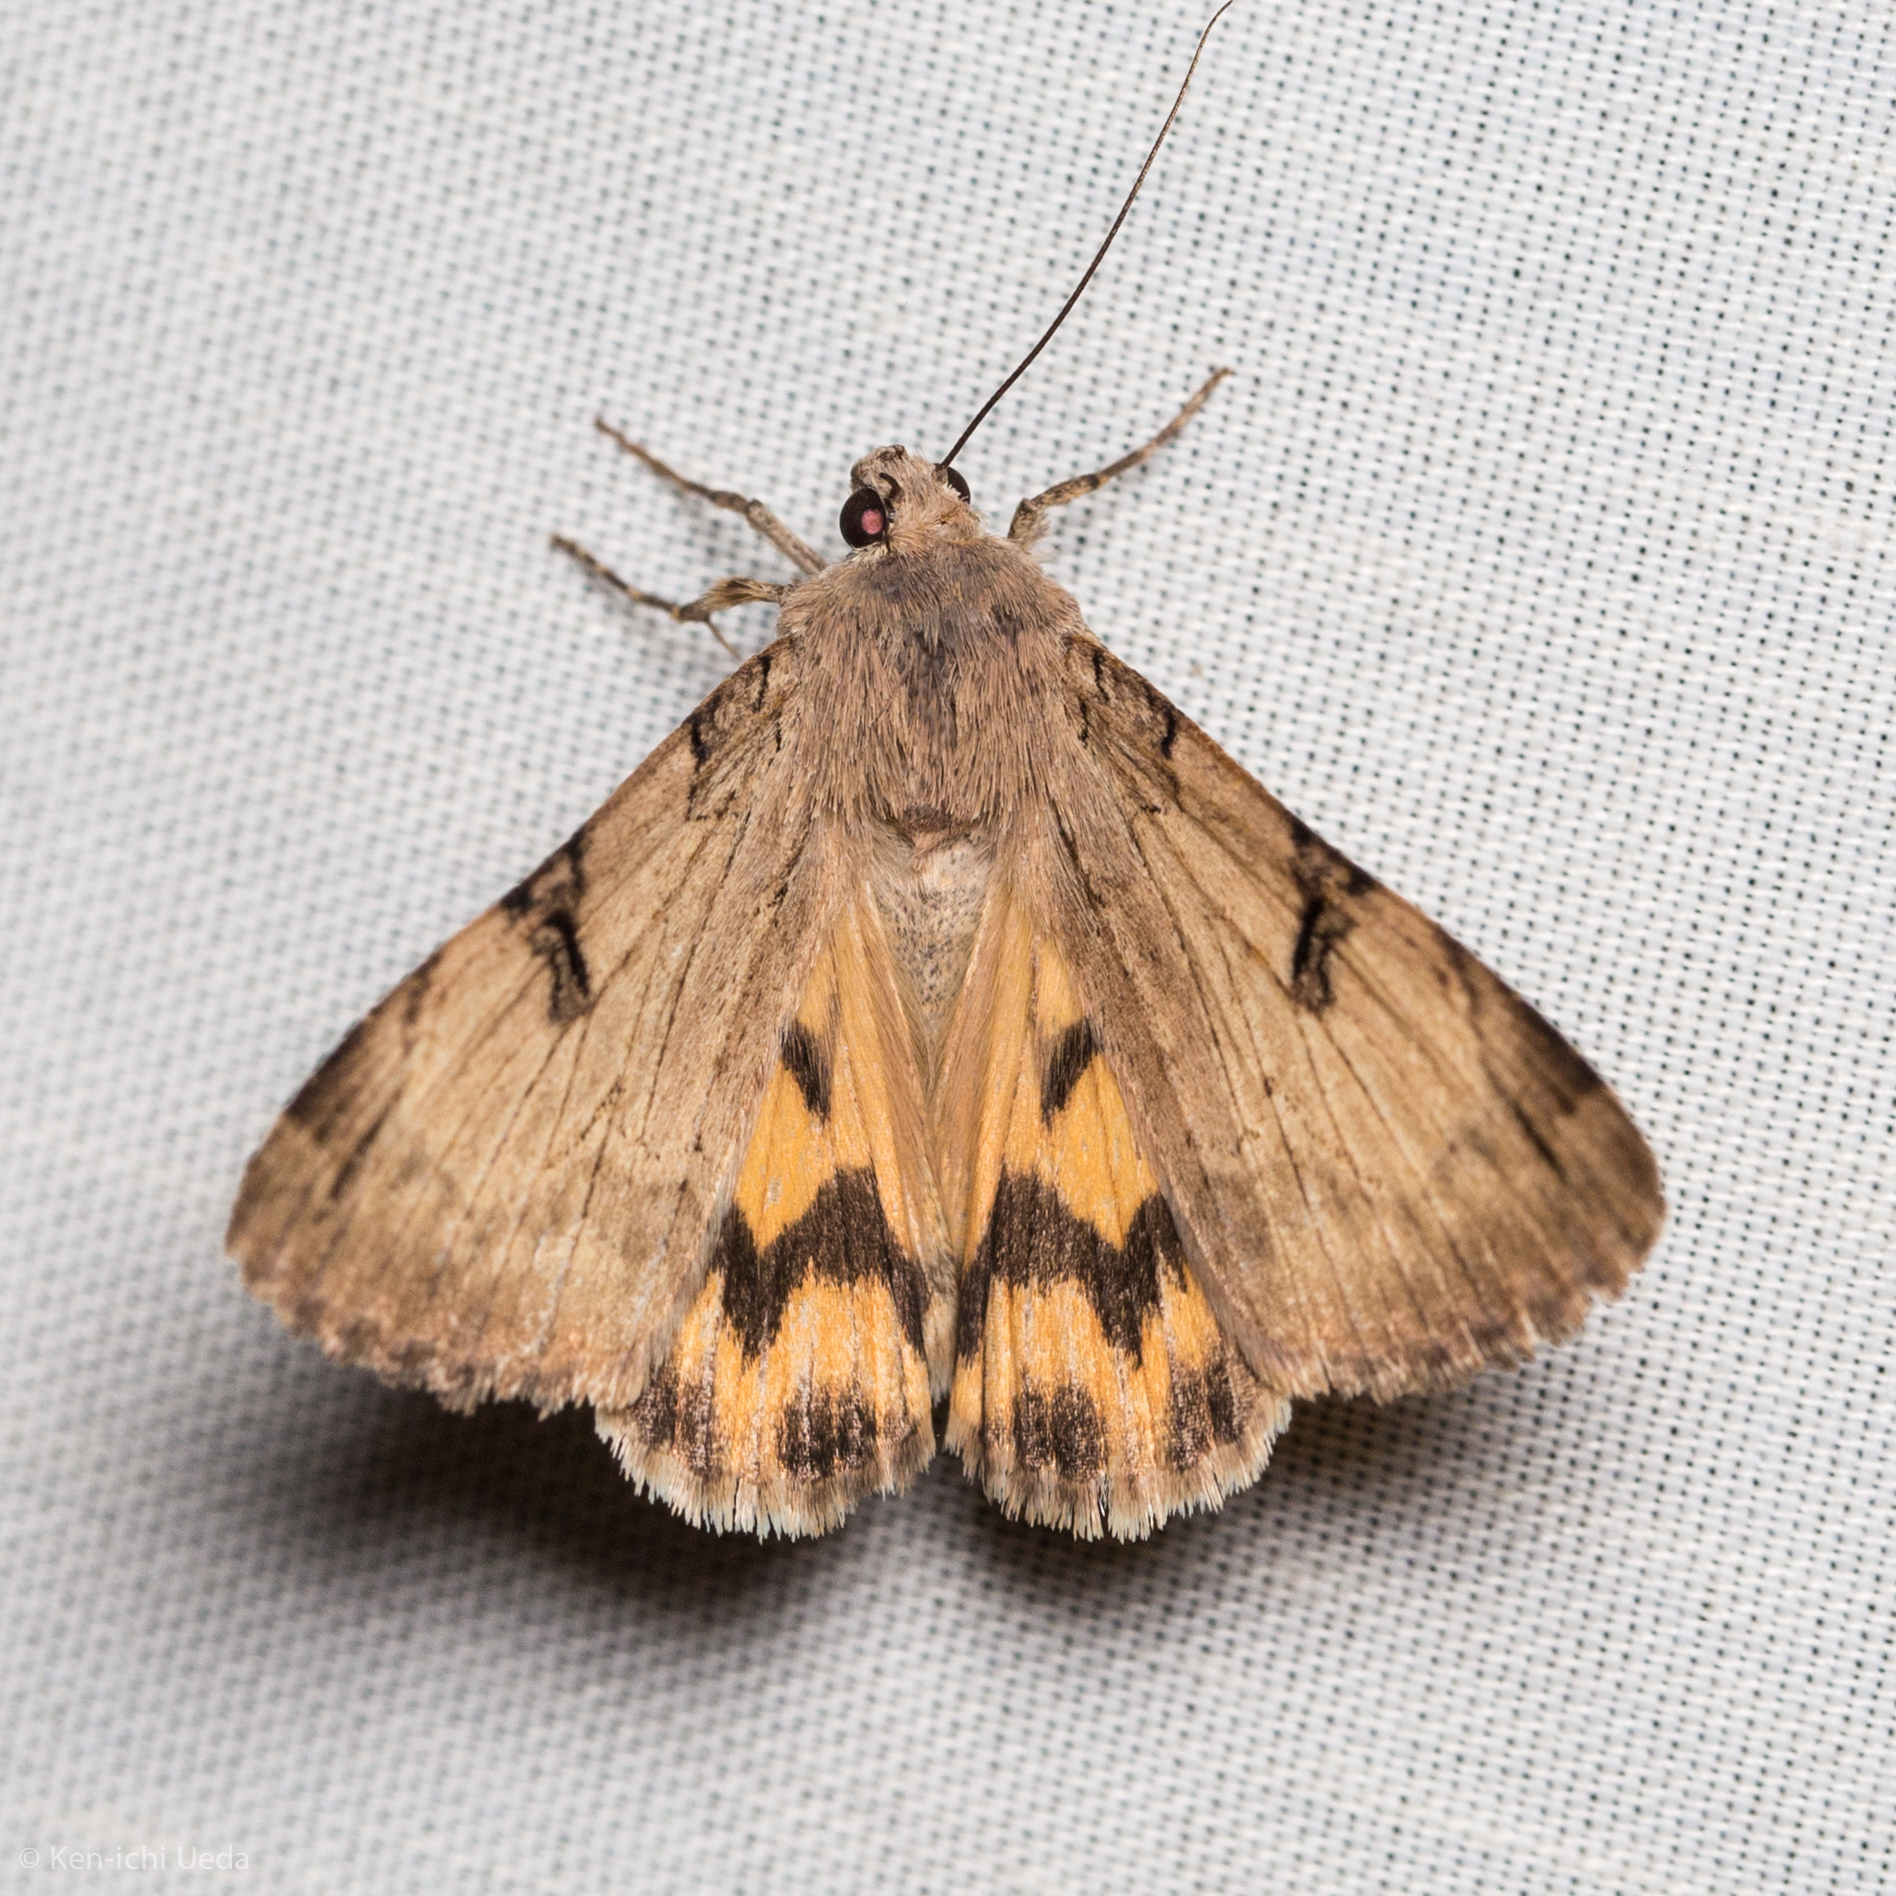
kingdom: Animalia
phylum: Arthropoda
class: Insecta
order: Lepidoptera
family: Erebidae
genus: Drasteria
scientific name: Drasteria ochracea
